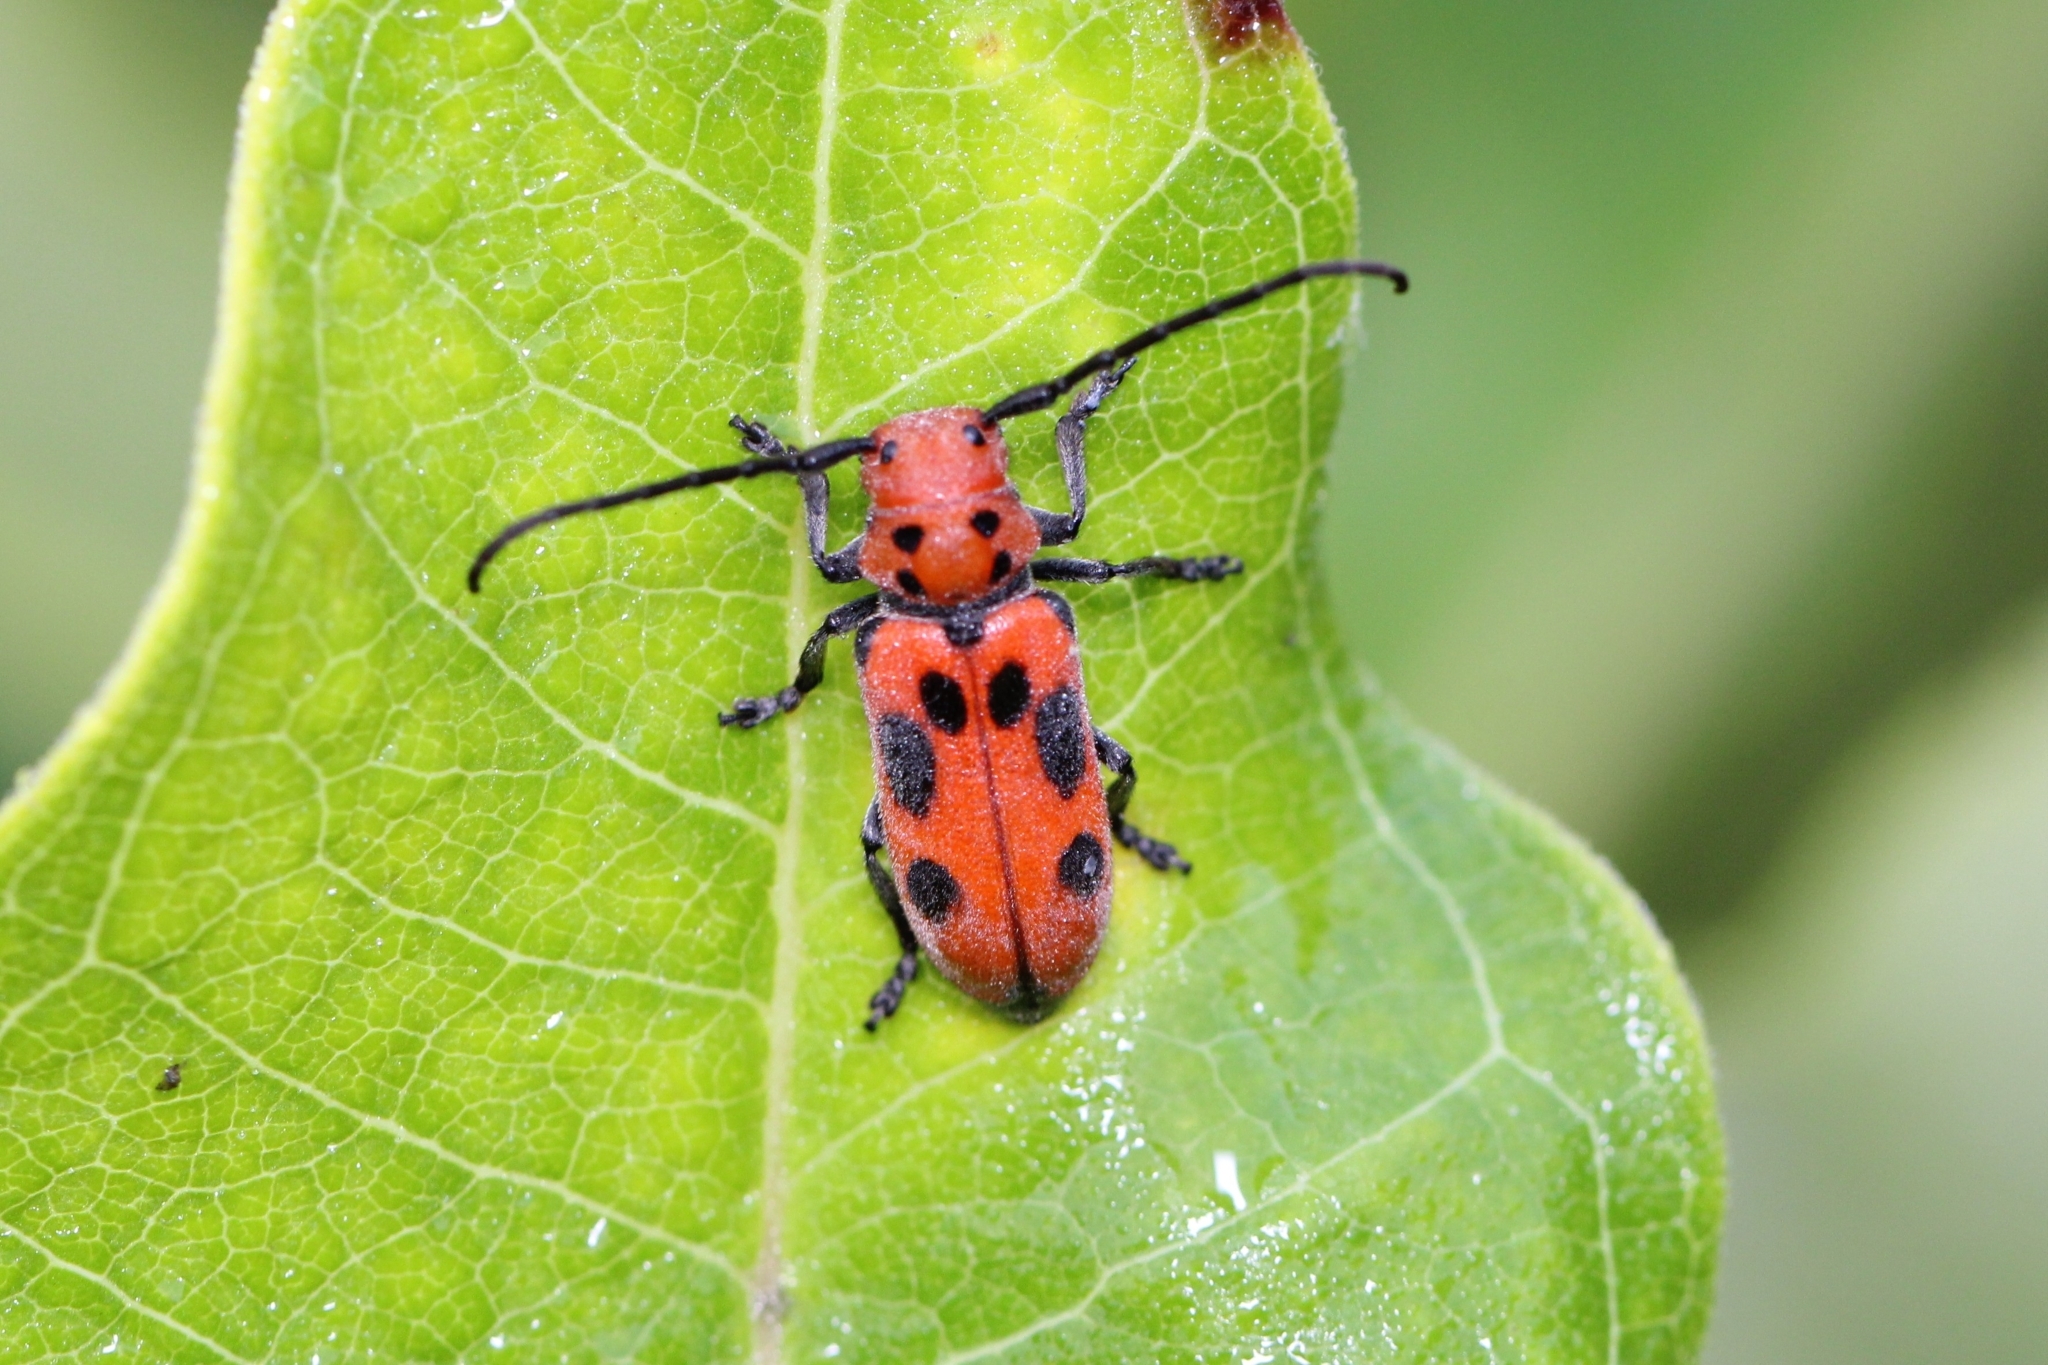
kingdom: Animalia
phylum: Arthropoda
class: Insecta
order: Coleoptera
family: Cerambycidae
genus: Tetraopes
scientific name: Tetraopes tetrophthalmus
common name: Red milkweed beetle
